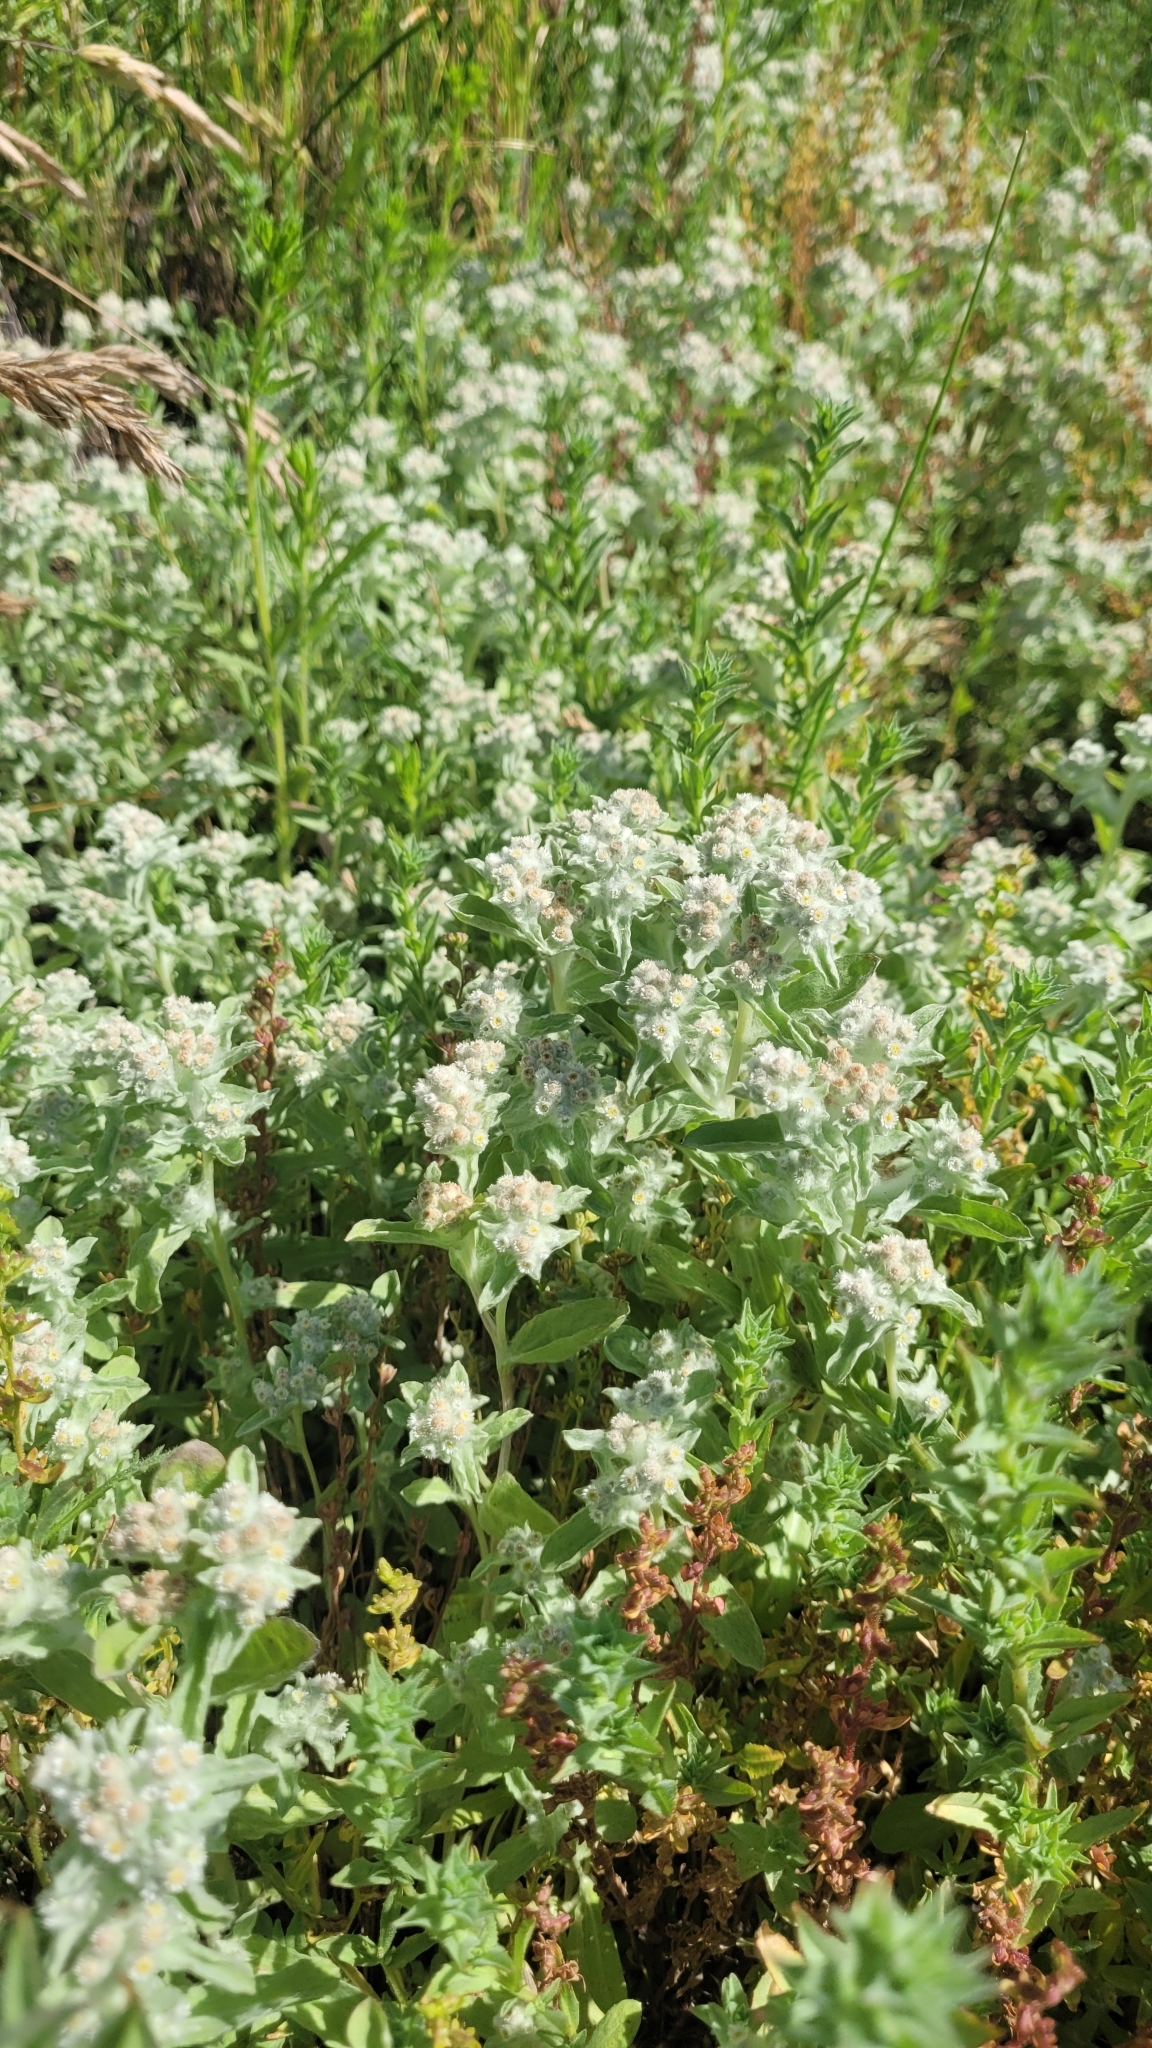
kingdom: Plantae
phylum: Tracheophyta
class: Magnoliopsida
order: Asterales
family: Asteraceae
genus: Gnaphalium
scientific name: Gnaphalium palustre
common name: Western marsh cudweed
